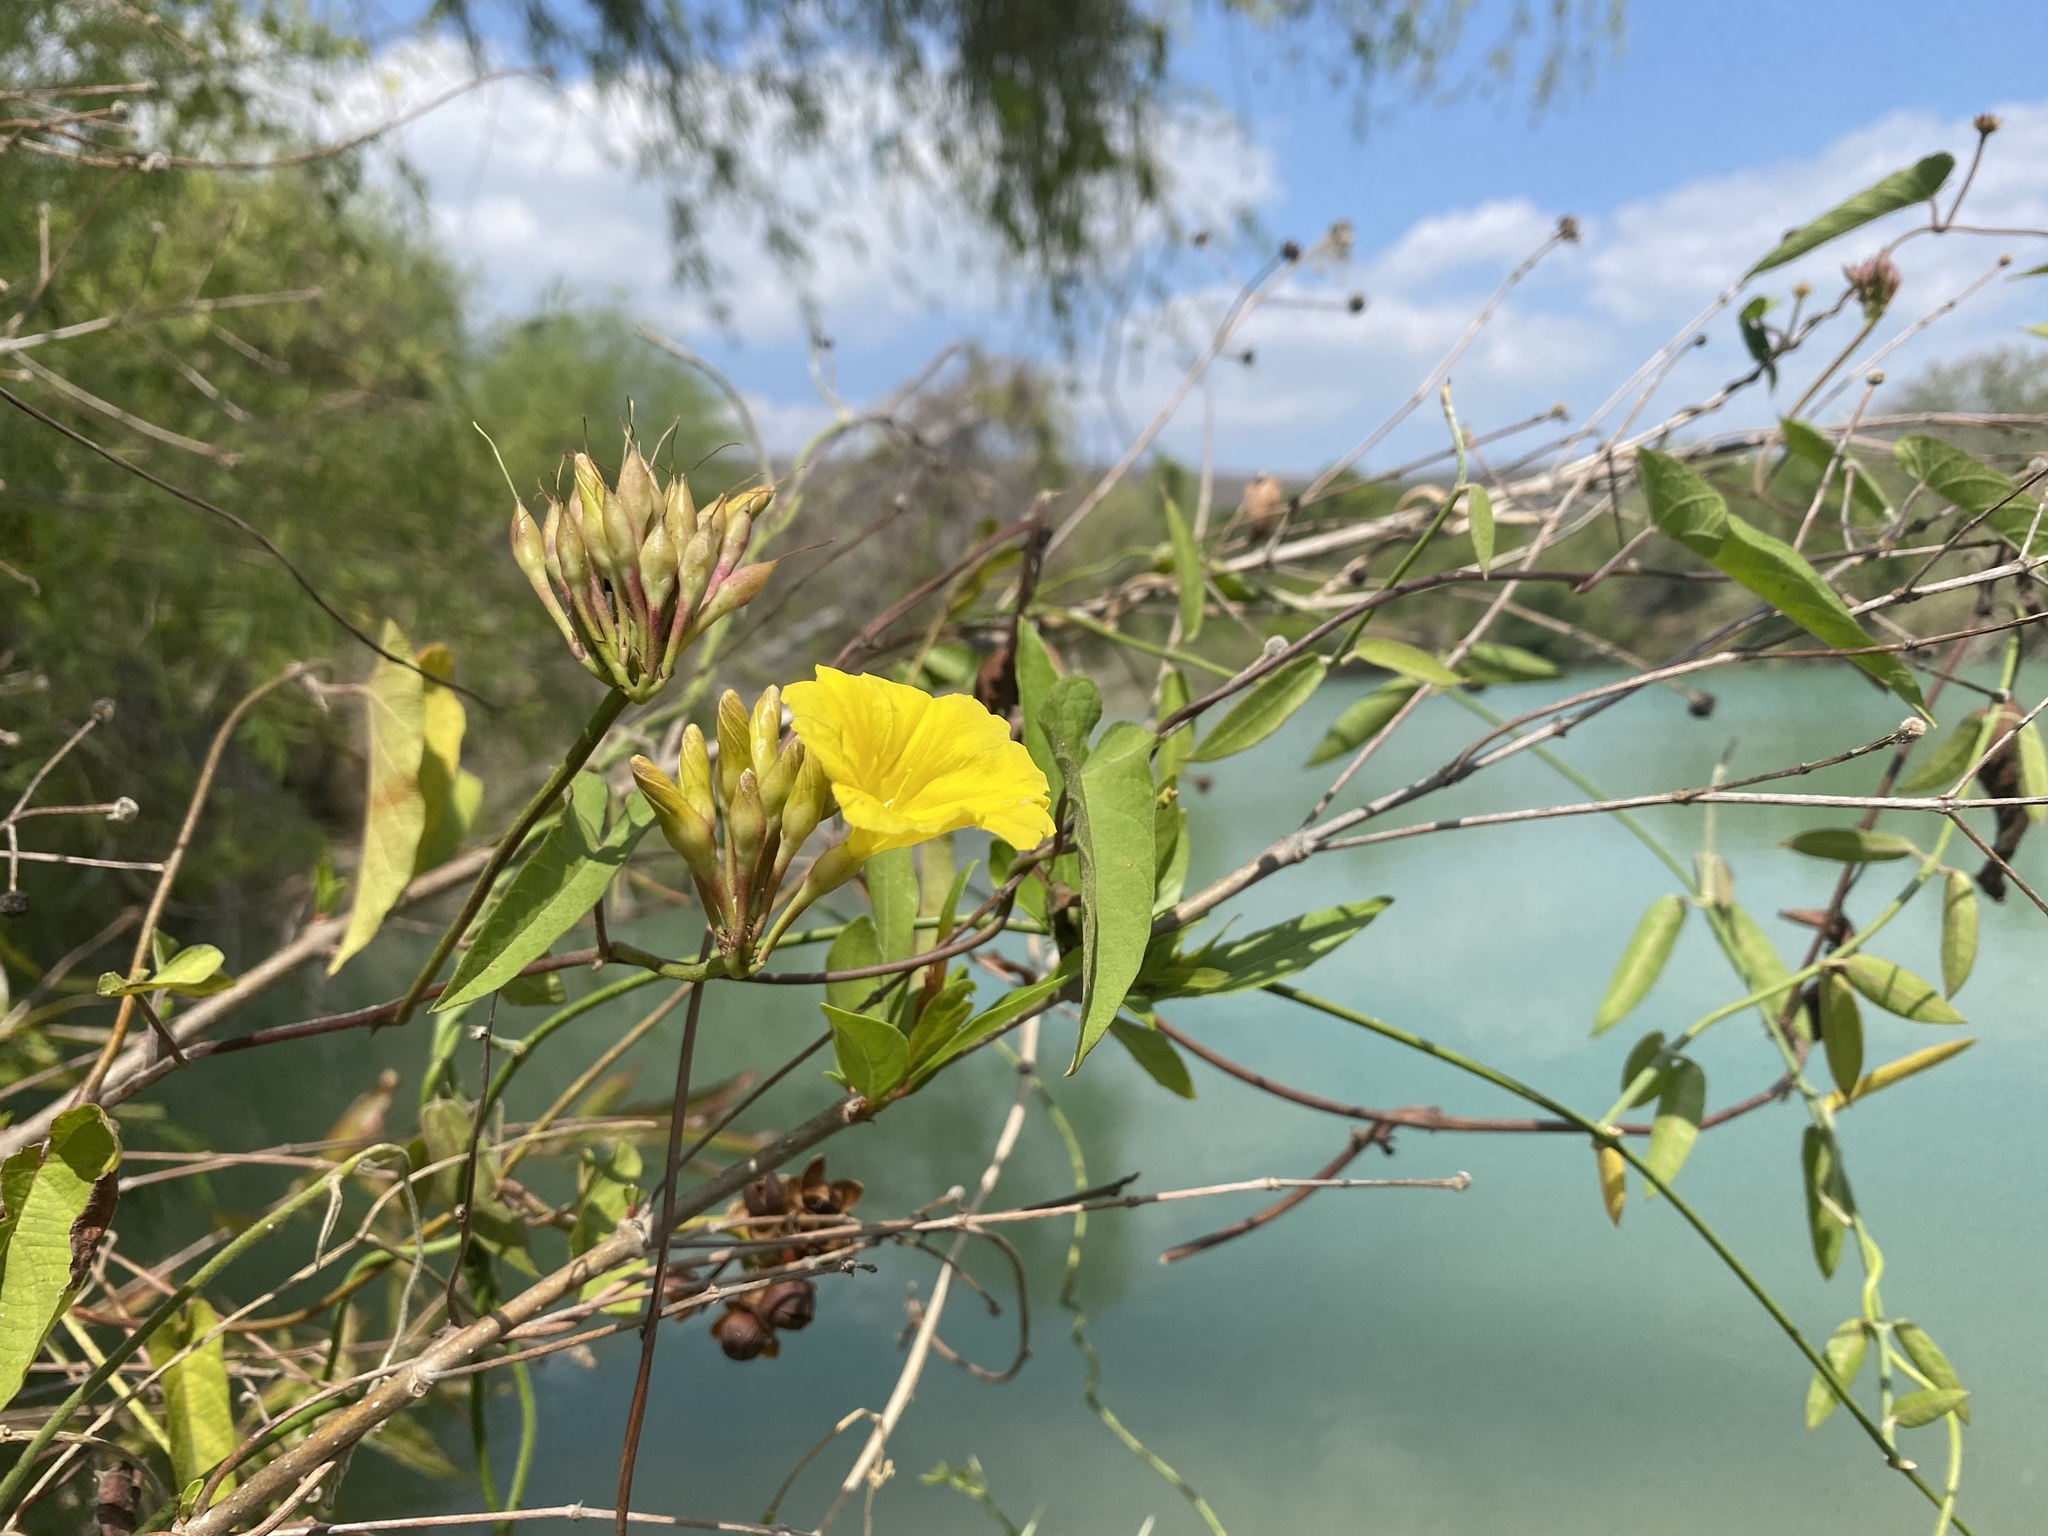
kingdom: Plantae
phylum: Tracheophyta
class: Magnoliopsida
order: Solanales
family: Convolvulaceae
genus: Camonea
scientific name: Camonea umbellata
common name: Hogvine
